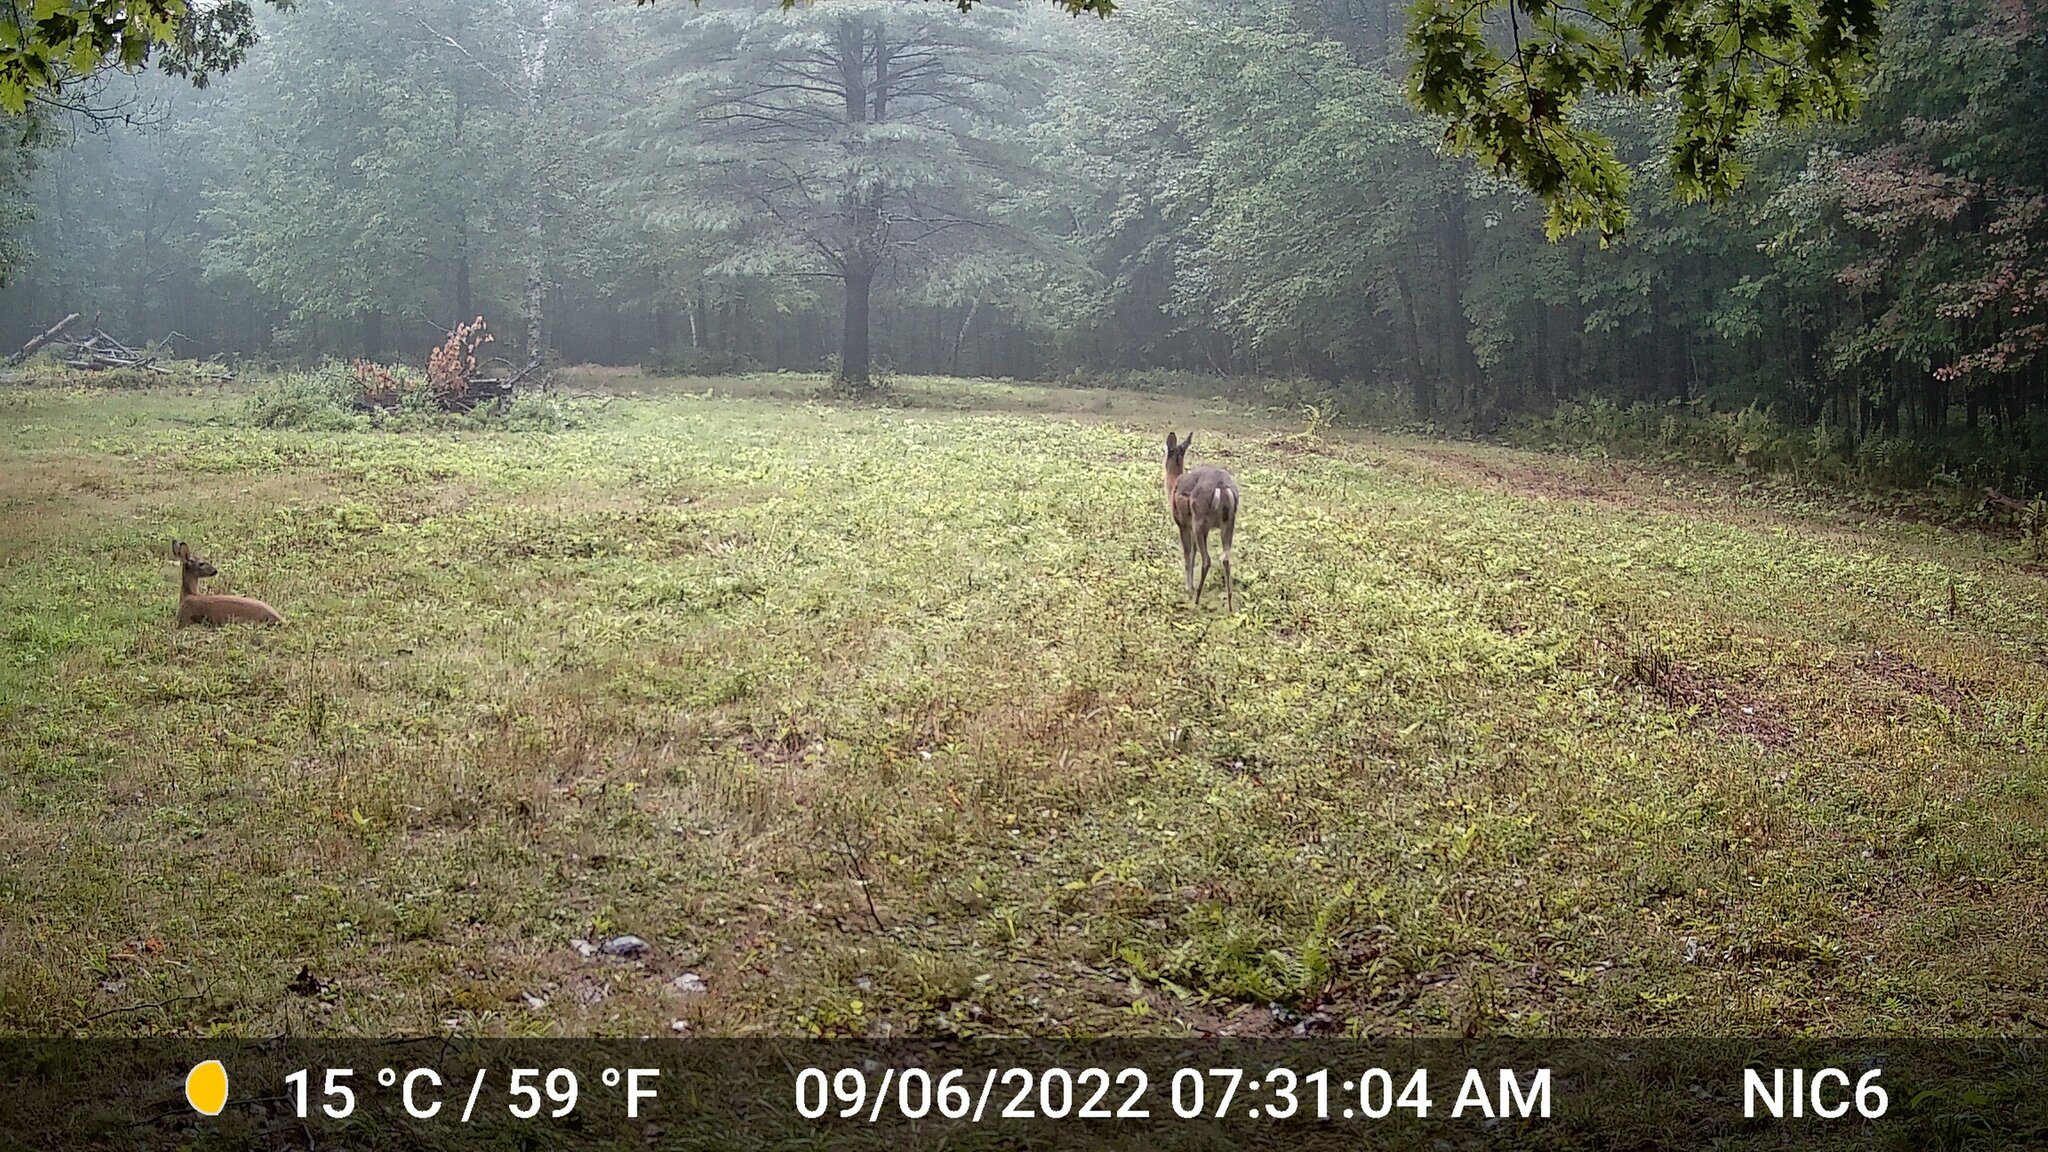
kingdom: Animalia
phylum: Chordata
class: Mammalia
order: Artiodactyla
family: Cervidae
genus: Odocoileus
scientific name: Odocoileus virginianus
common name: White-tailed deer
